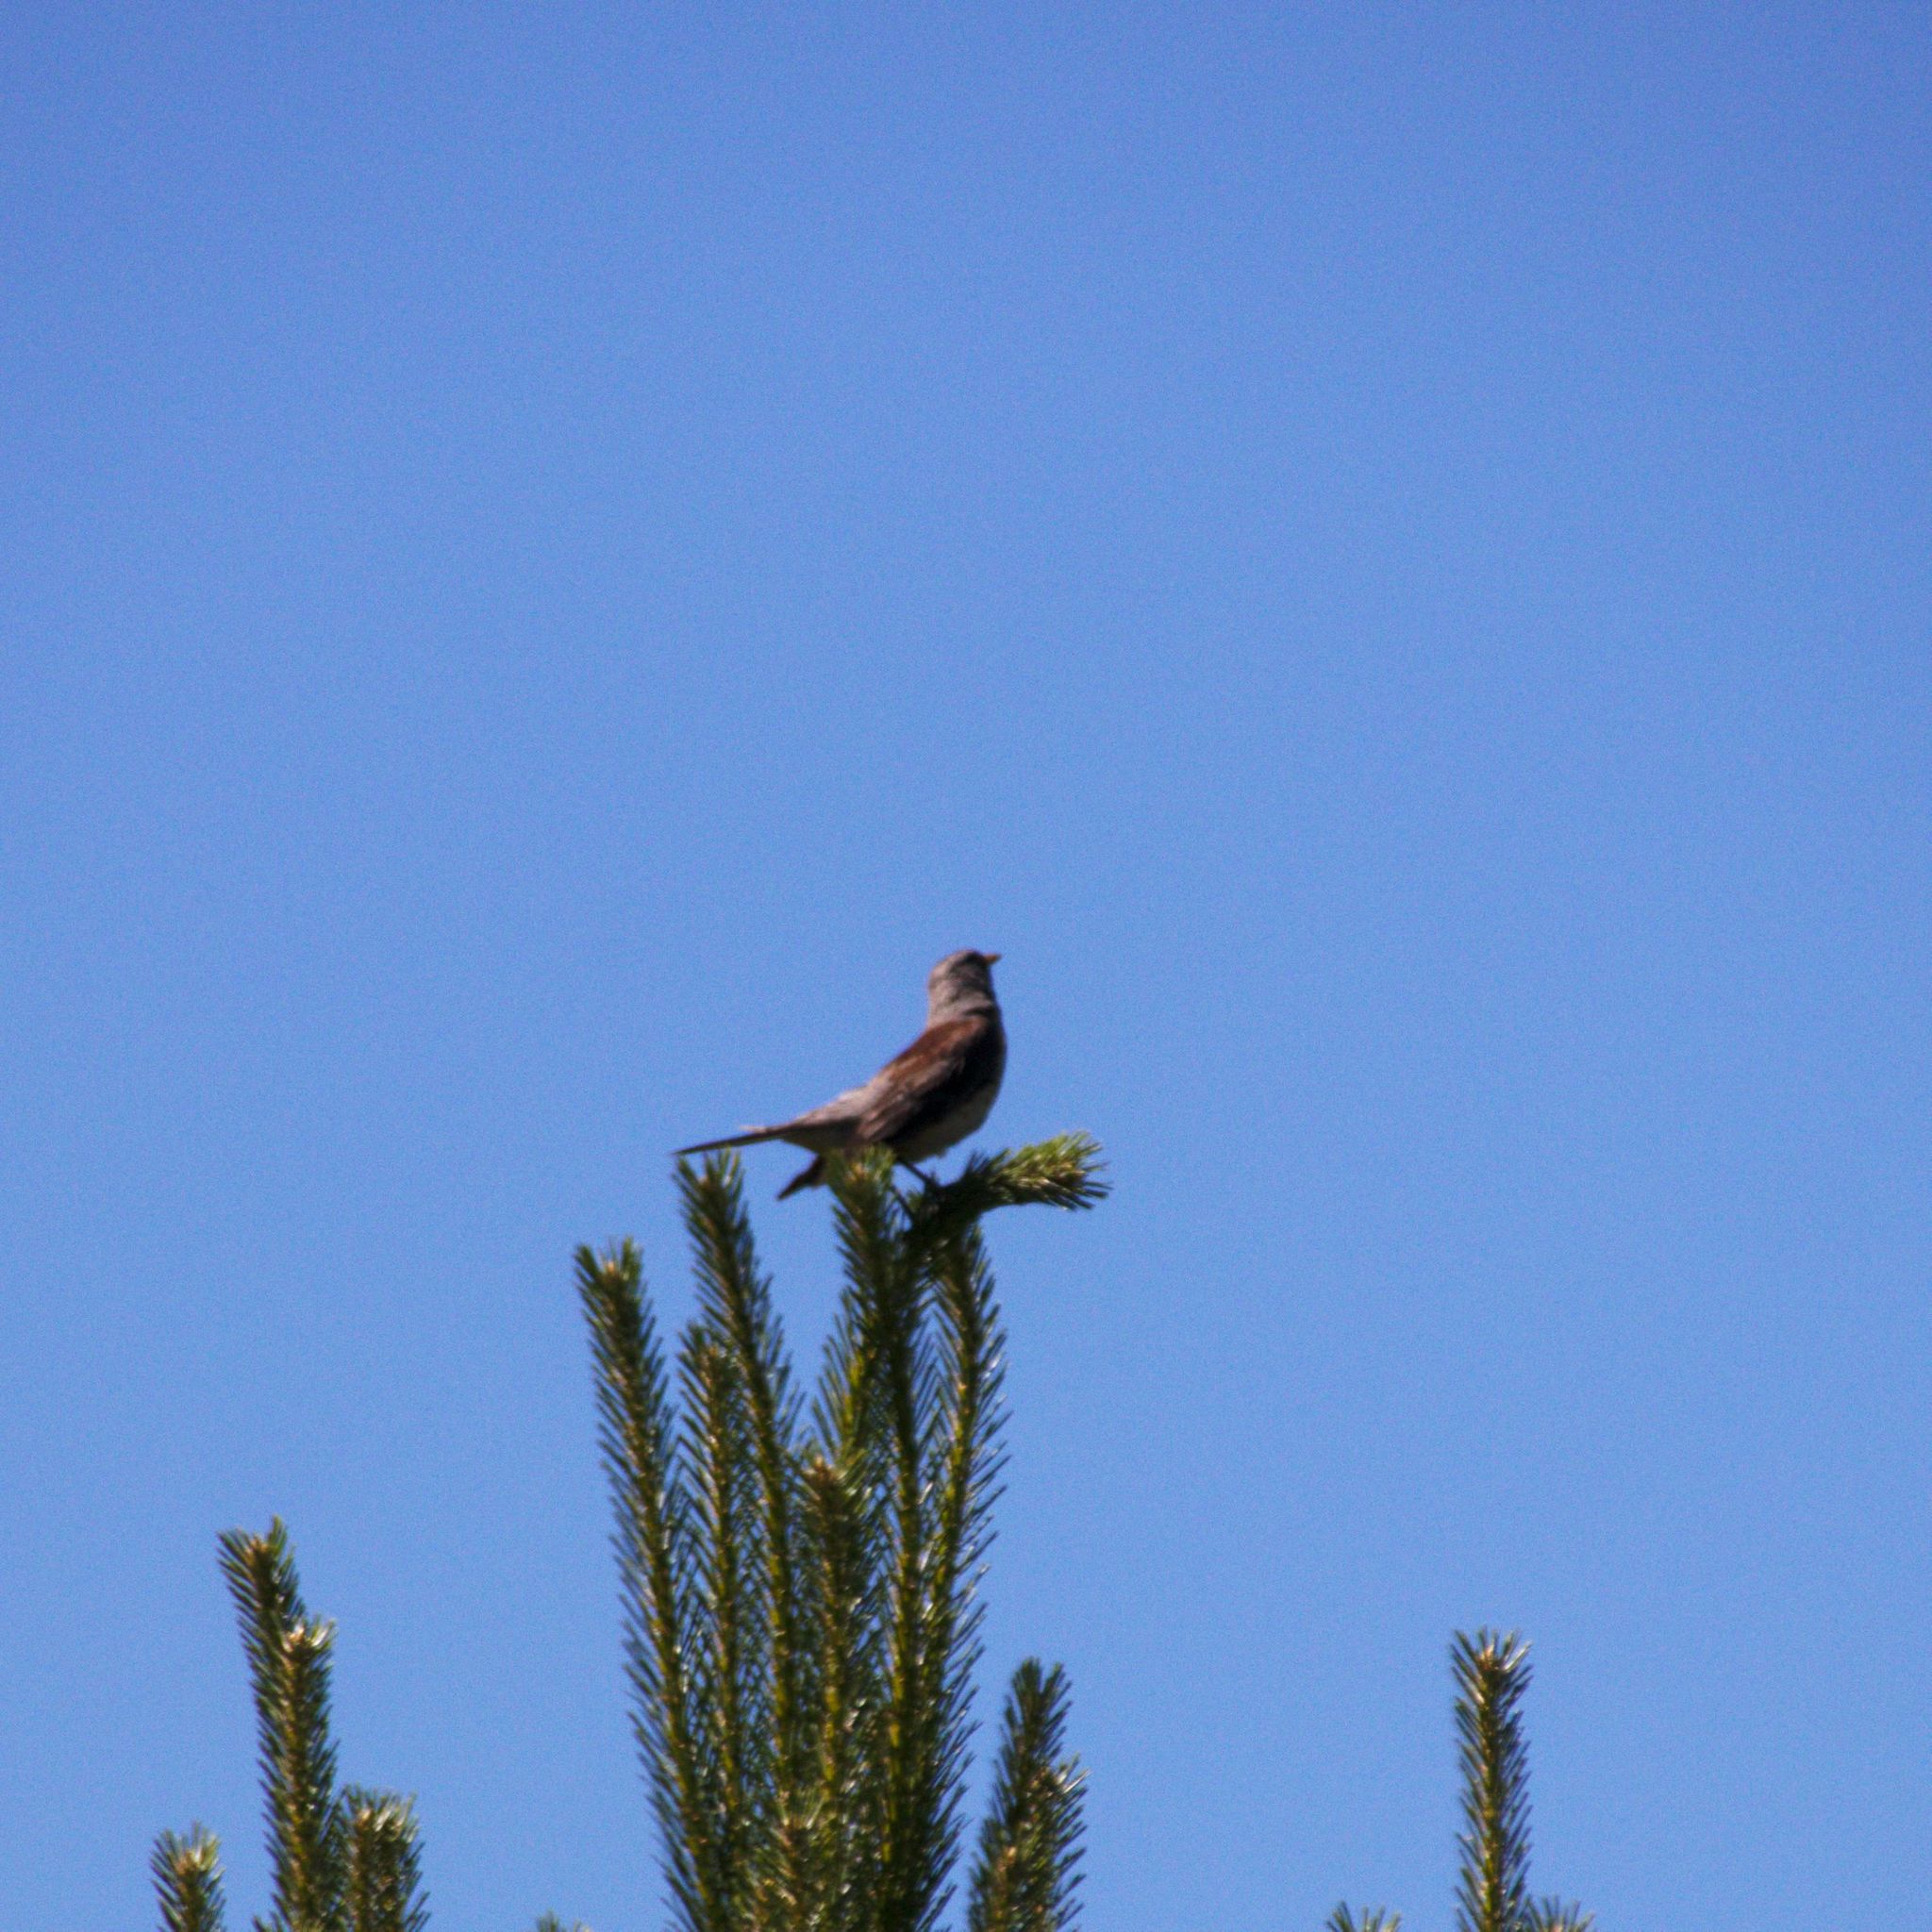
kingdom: Animalia
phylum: Chordata
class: Aves
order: Passeriformes
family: Turdidae
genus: Turdus
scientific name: Turdus pilaris
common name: Fieldfare
